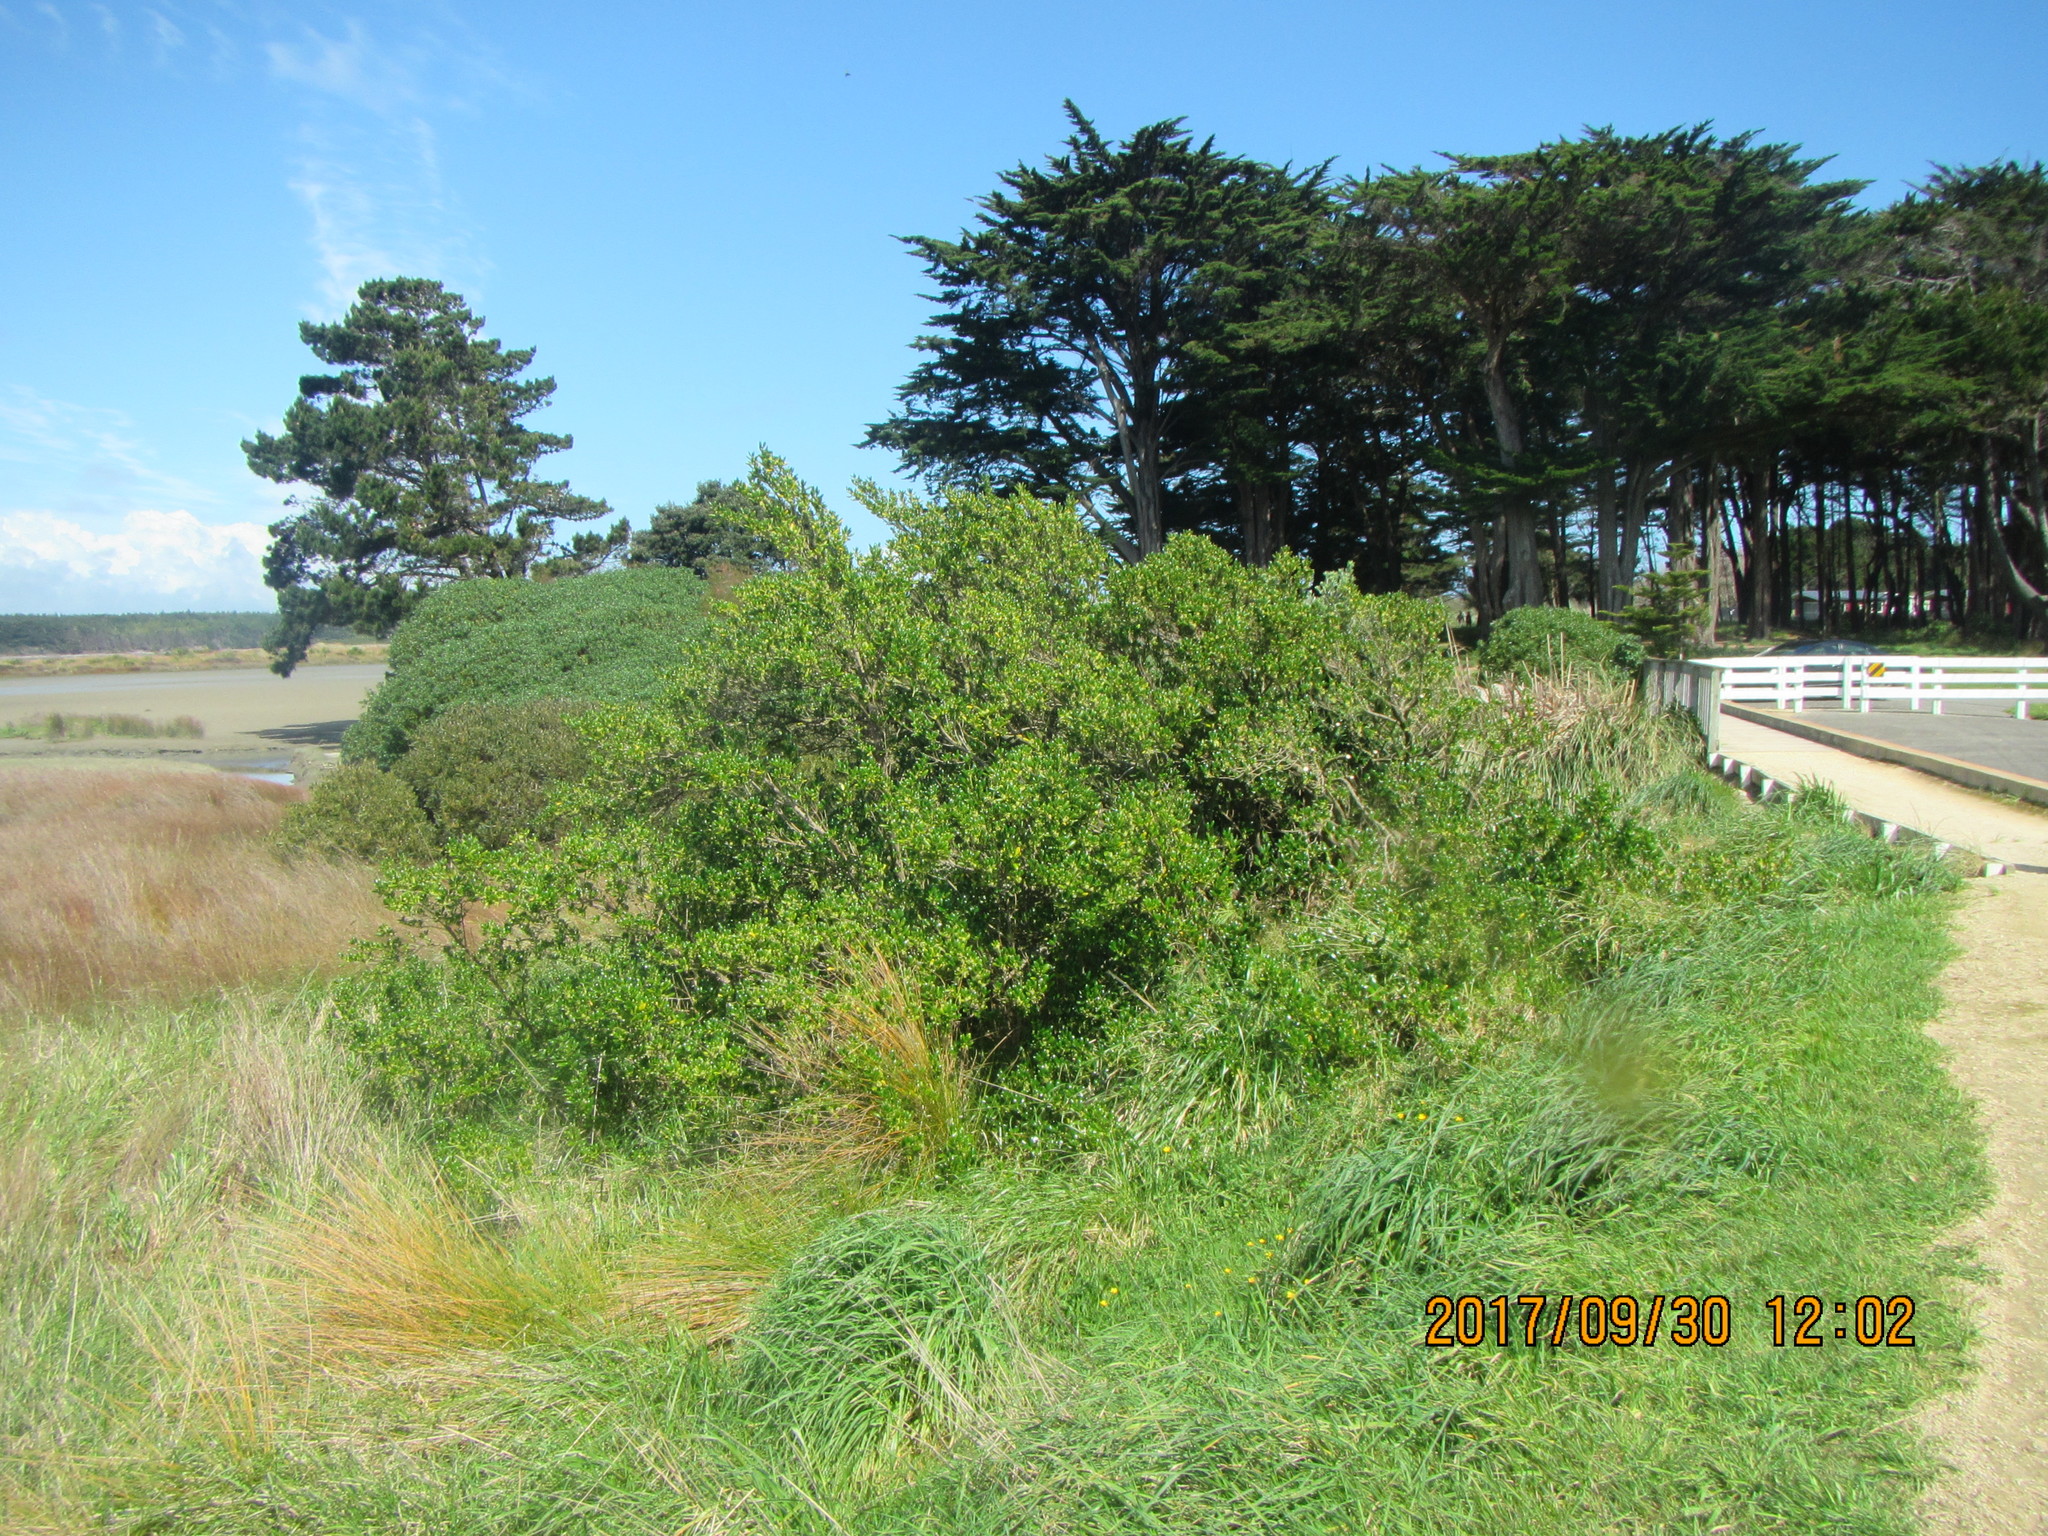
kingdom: Plantae
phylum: Tracheophyta
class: Magnoliopsida
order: Gentianales
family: Rubiaceae
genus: Coprosma
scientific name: Coprosma repens
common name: Tree bedstraw
